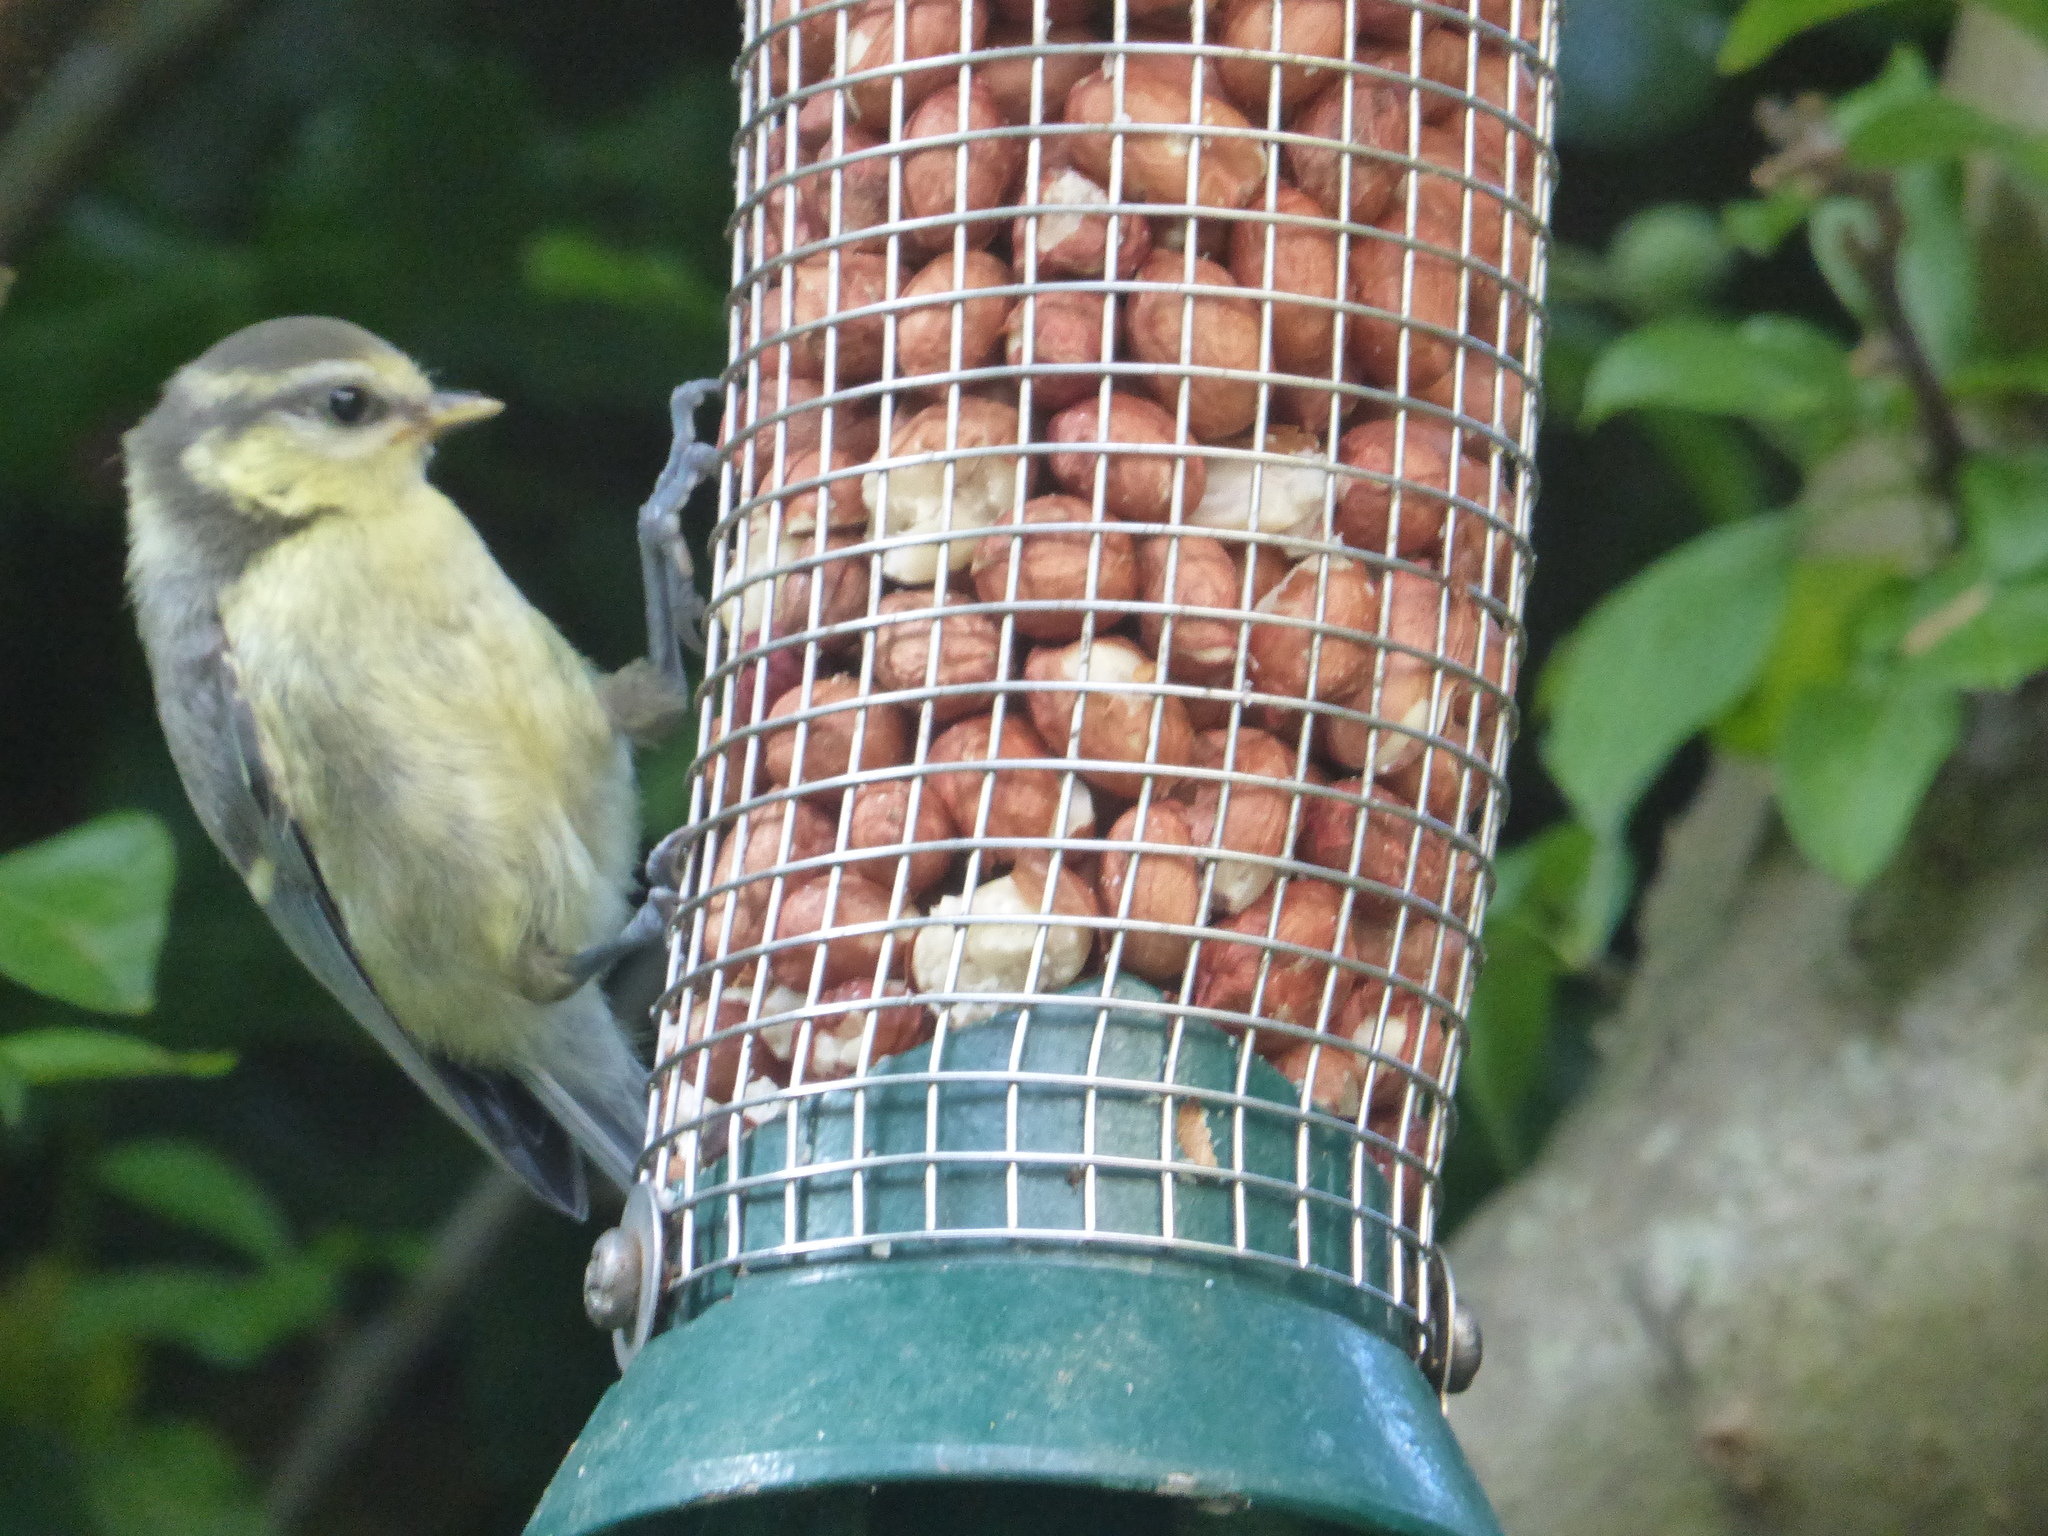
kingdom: Animalia
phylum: Chordata
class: Aves
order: Passeriformes
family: Paridae
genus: Cyanistes
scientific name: Cyanistes caeruleus
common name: Eurasian blue tit
